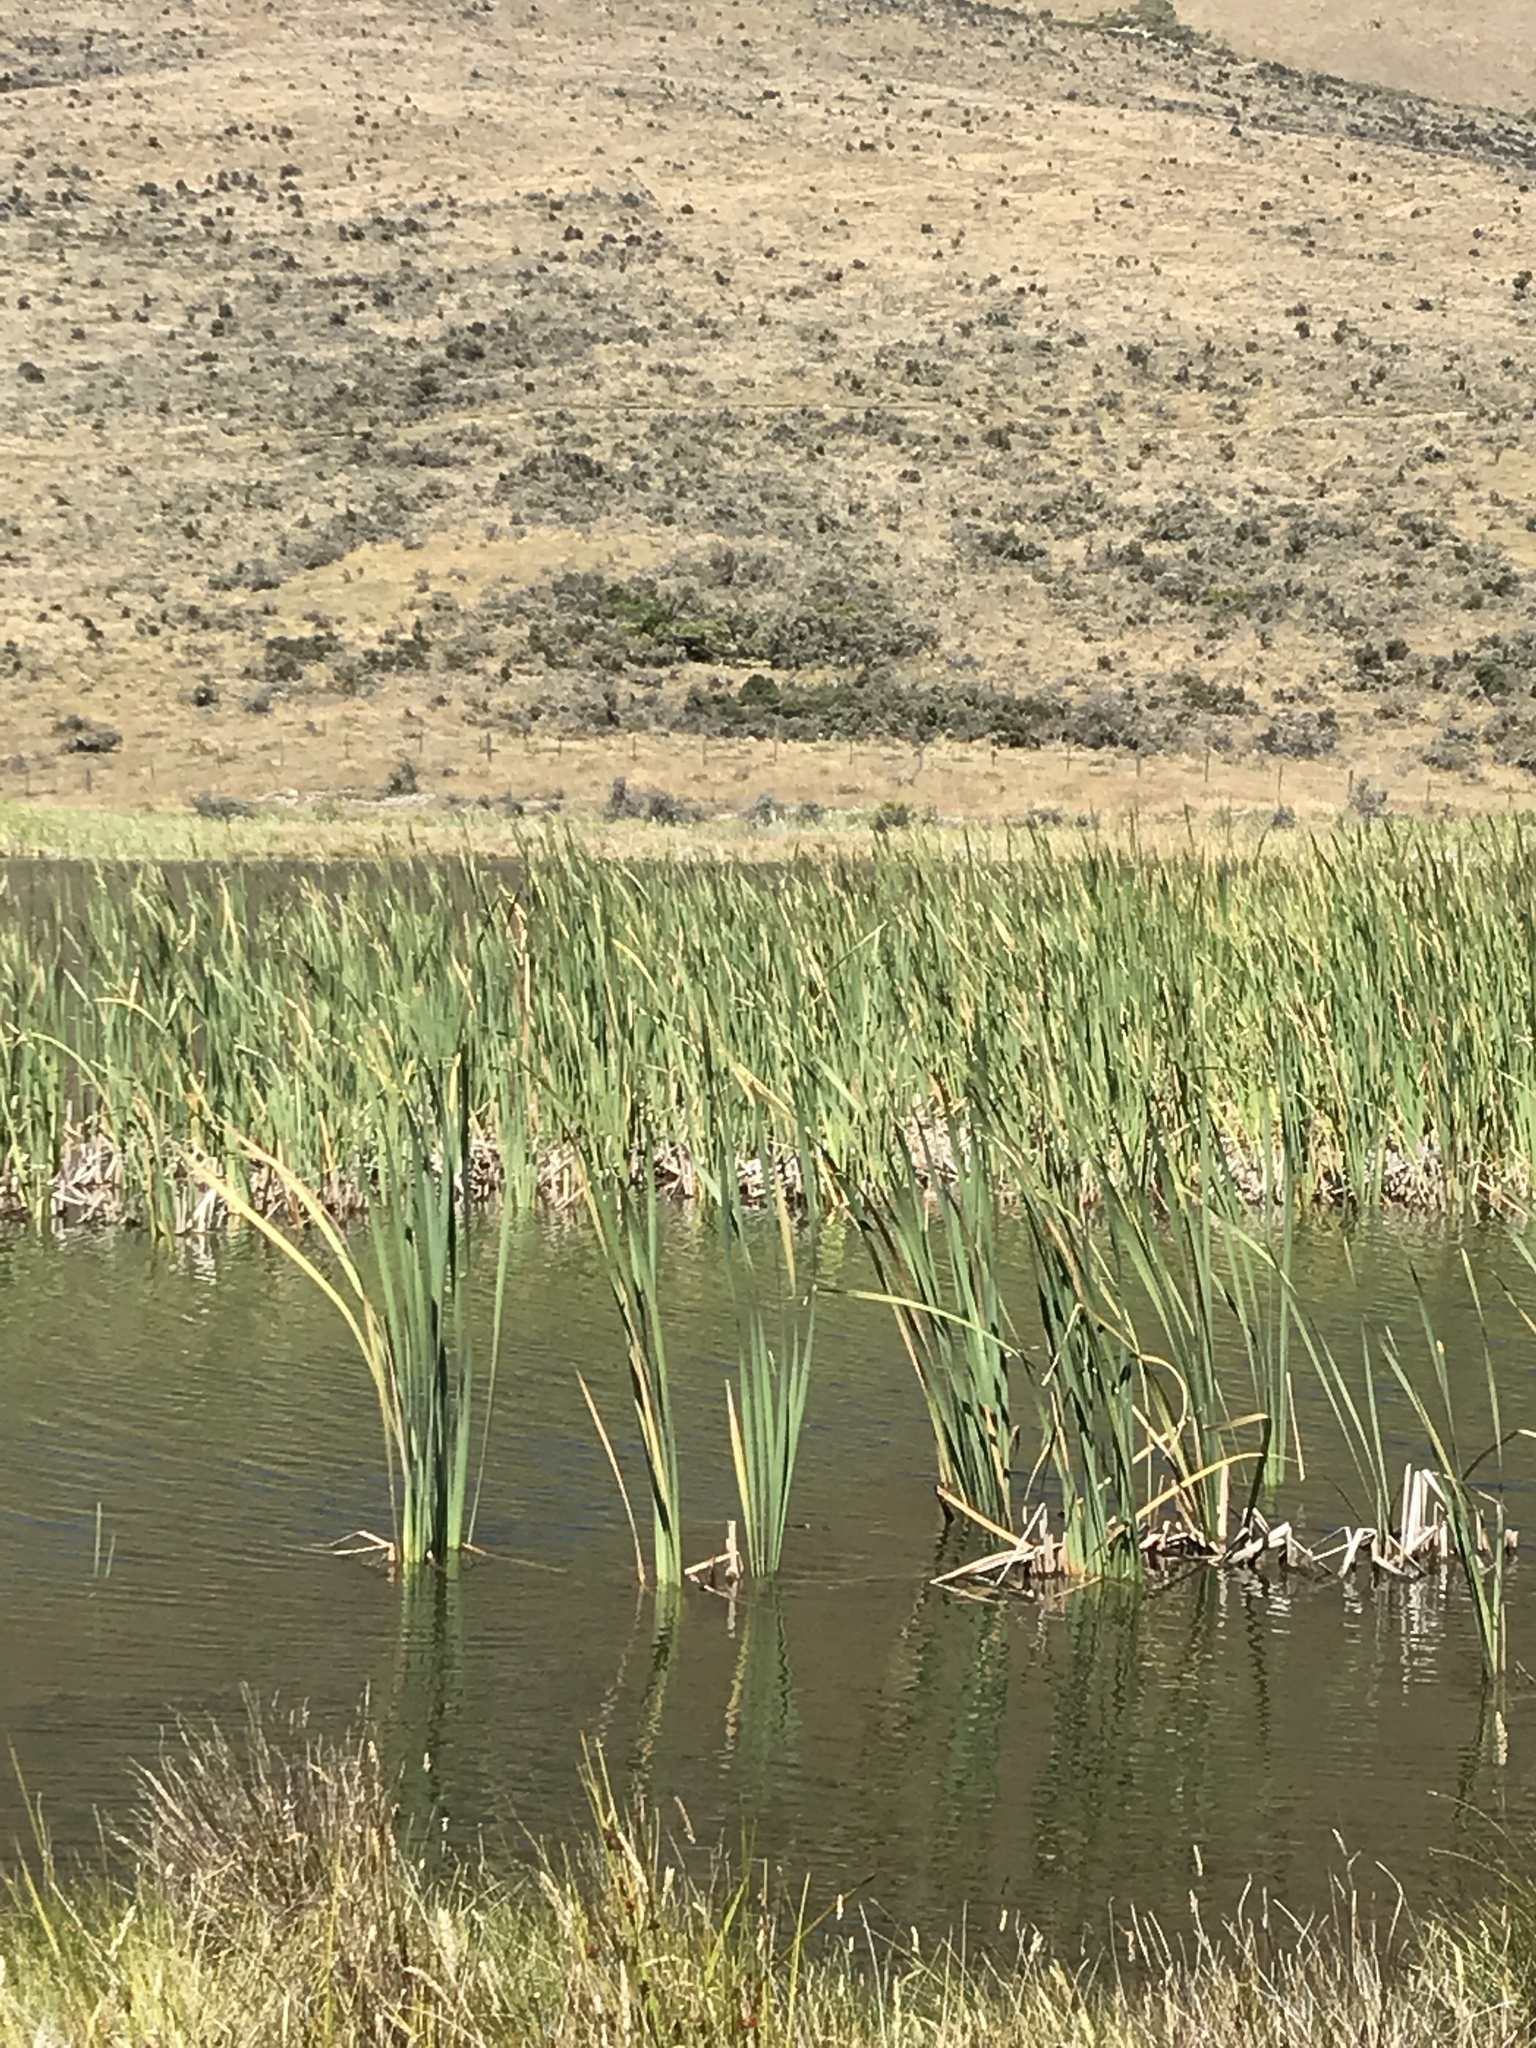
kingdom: Plantae
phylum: Tracheophyta
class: Liliopsida
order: Poales
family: Typhaceae
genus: Typha
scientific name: Typha orientalis
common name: Bullrush
